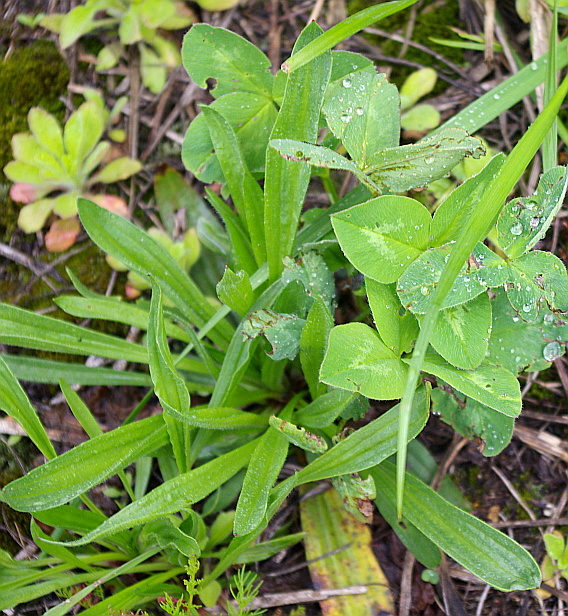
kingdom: Plantae
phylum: Tracheophyta
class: Magnoliopsida
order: Lamiales
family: Plantaginaceae
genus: Plantago
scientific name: Plantago lanceolata
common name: Ribwort plantain
